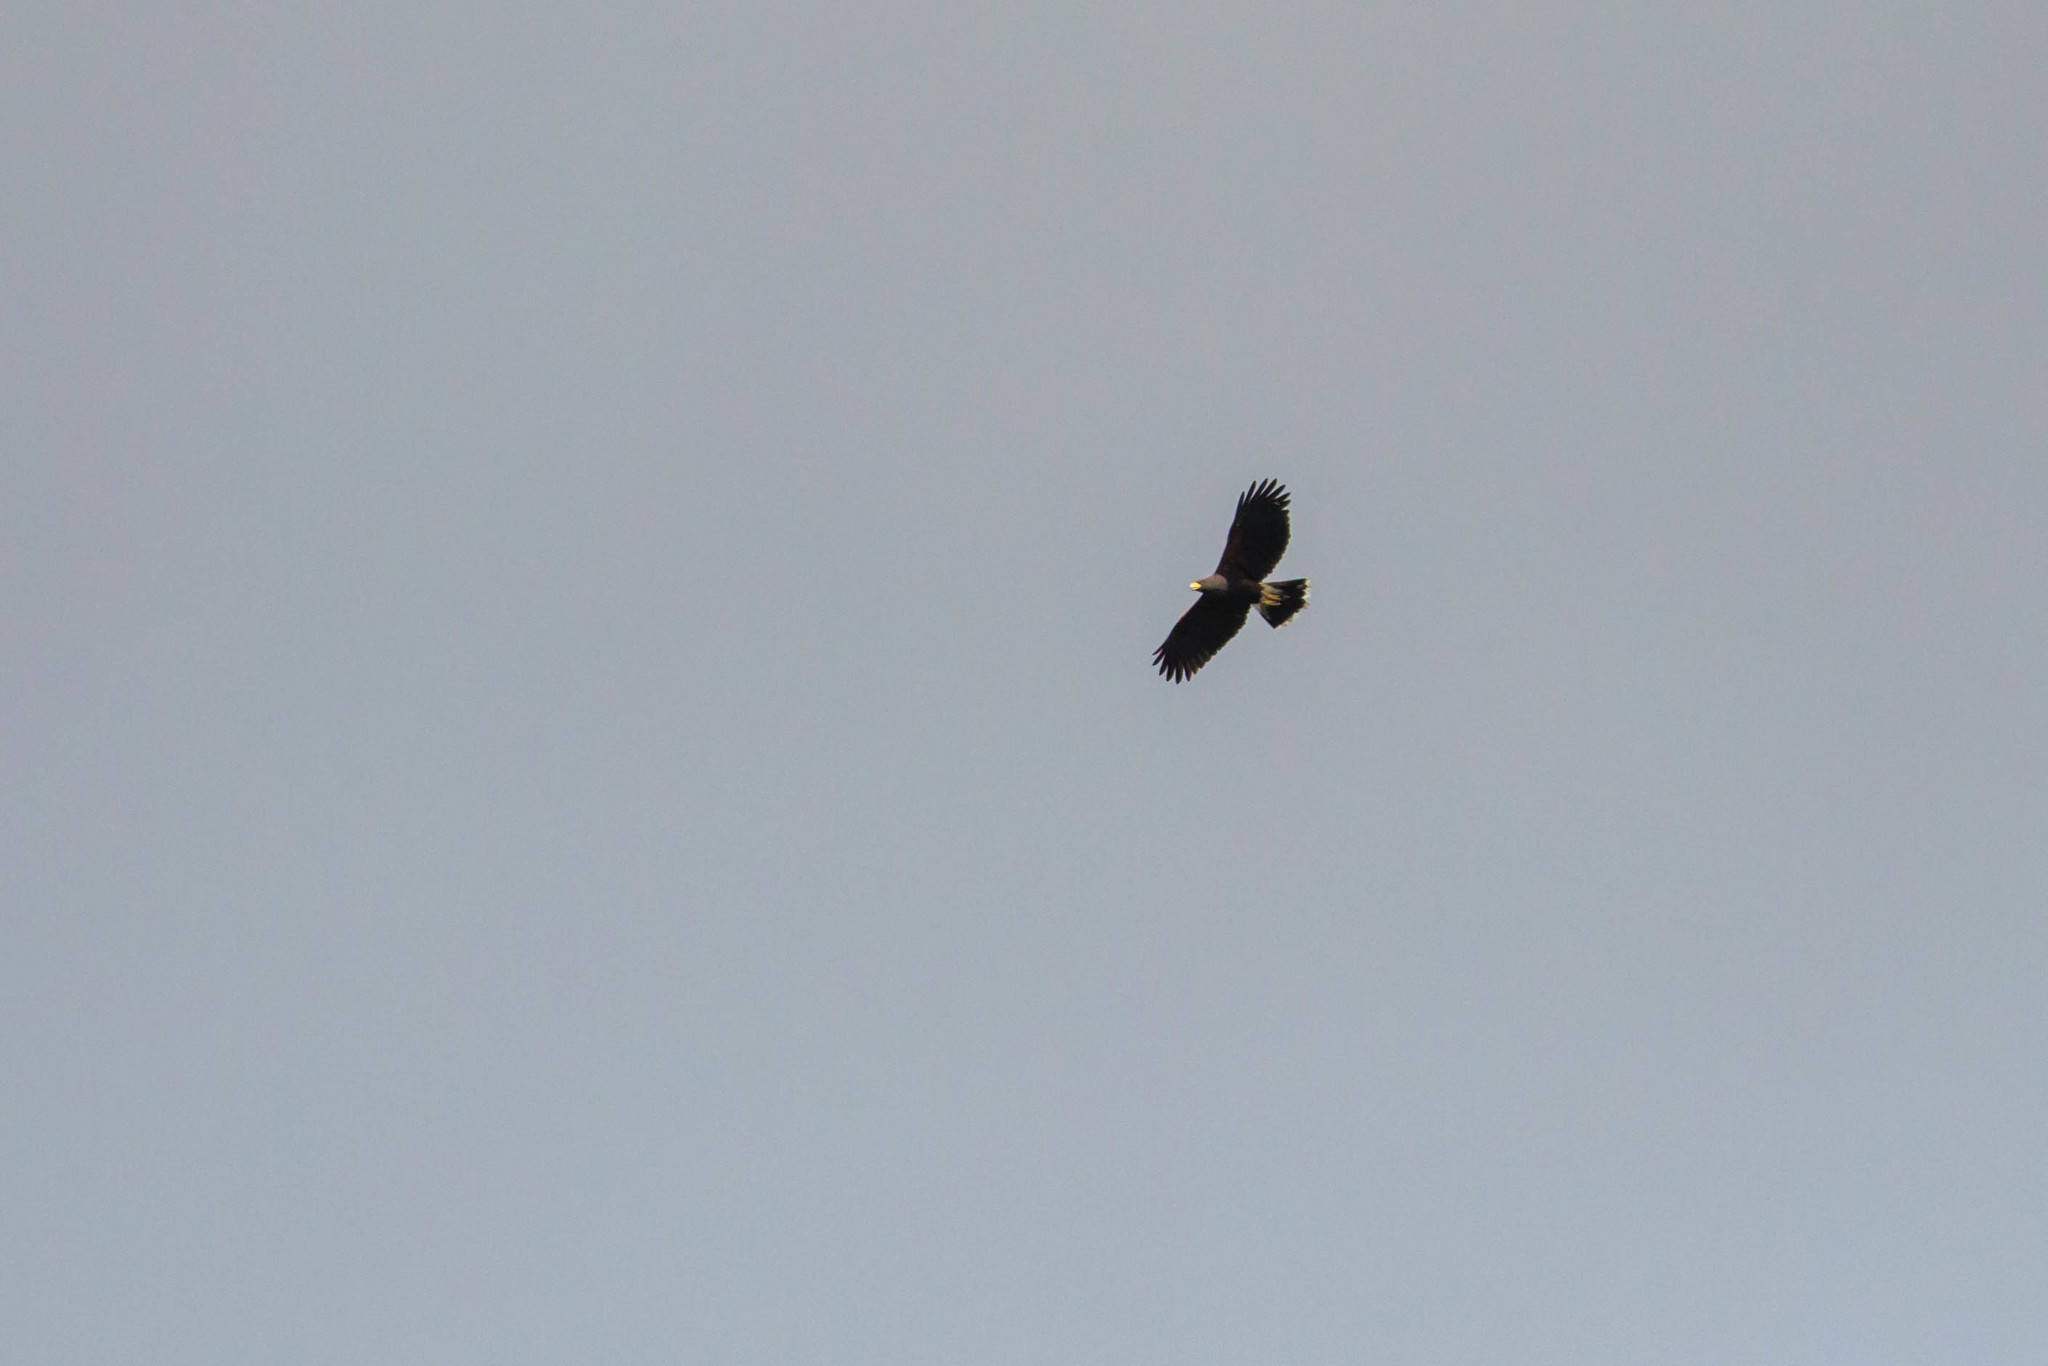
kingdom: Animalia
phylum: Chordata
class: Aves
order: Accipitriformes
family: Accipitridae
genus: Parabuteo
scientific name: Parabuteo unicinctus
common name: Harris's hawk
